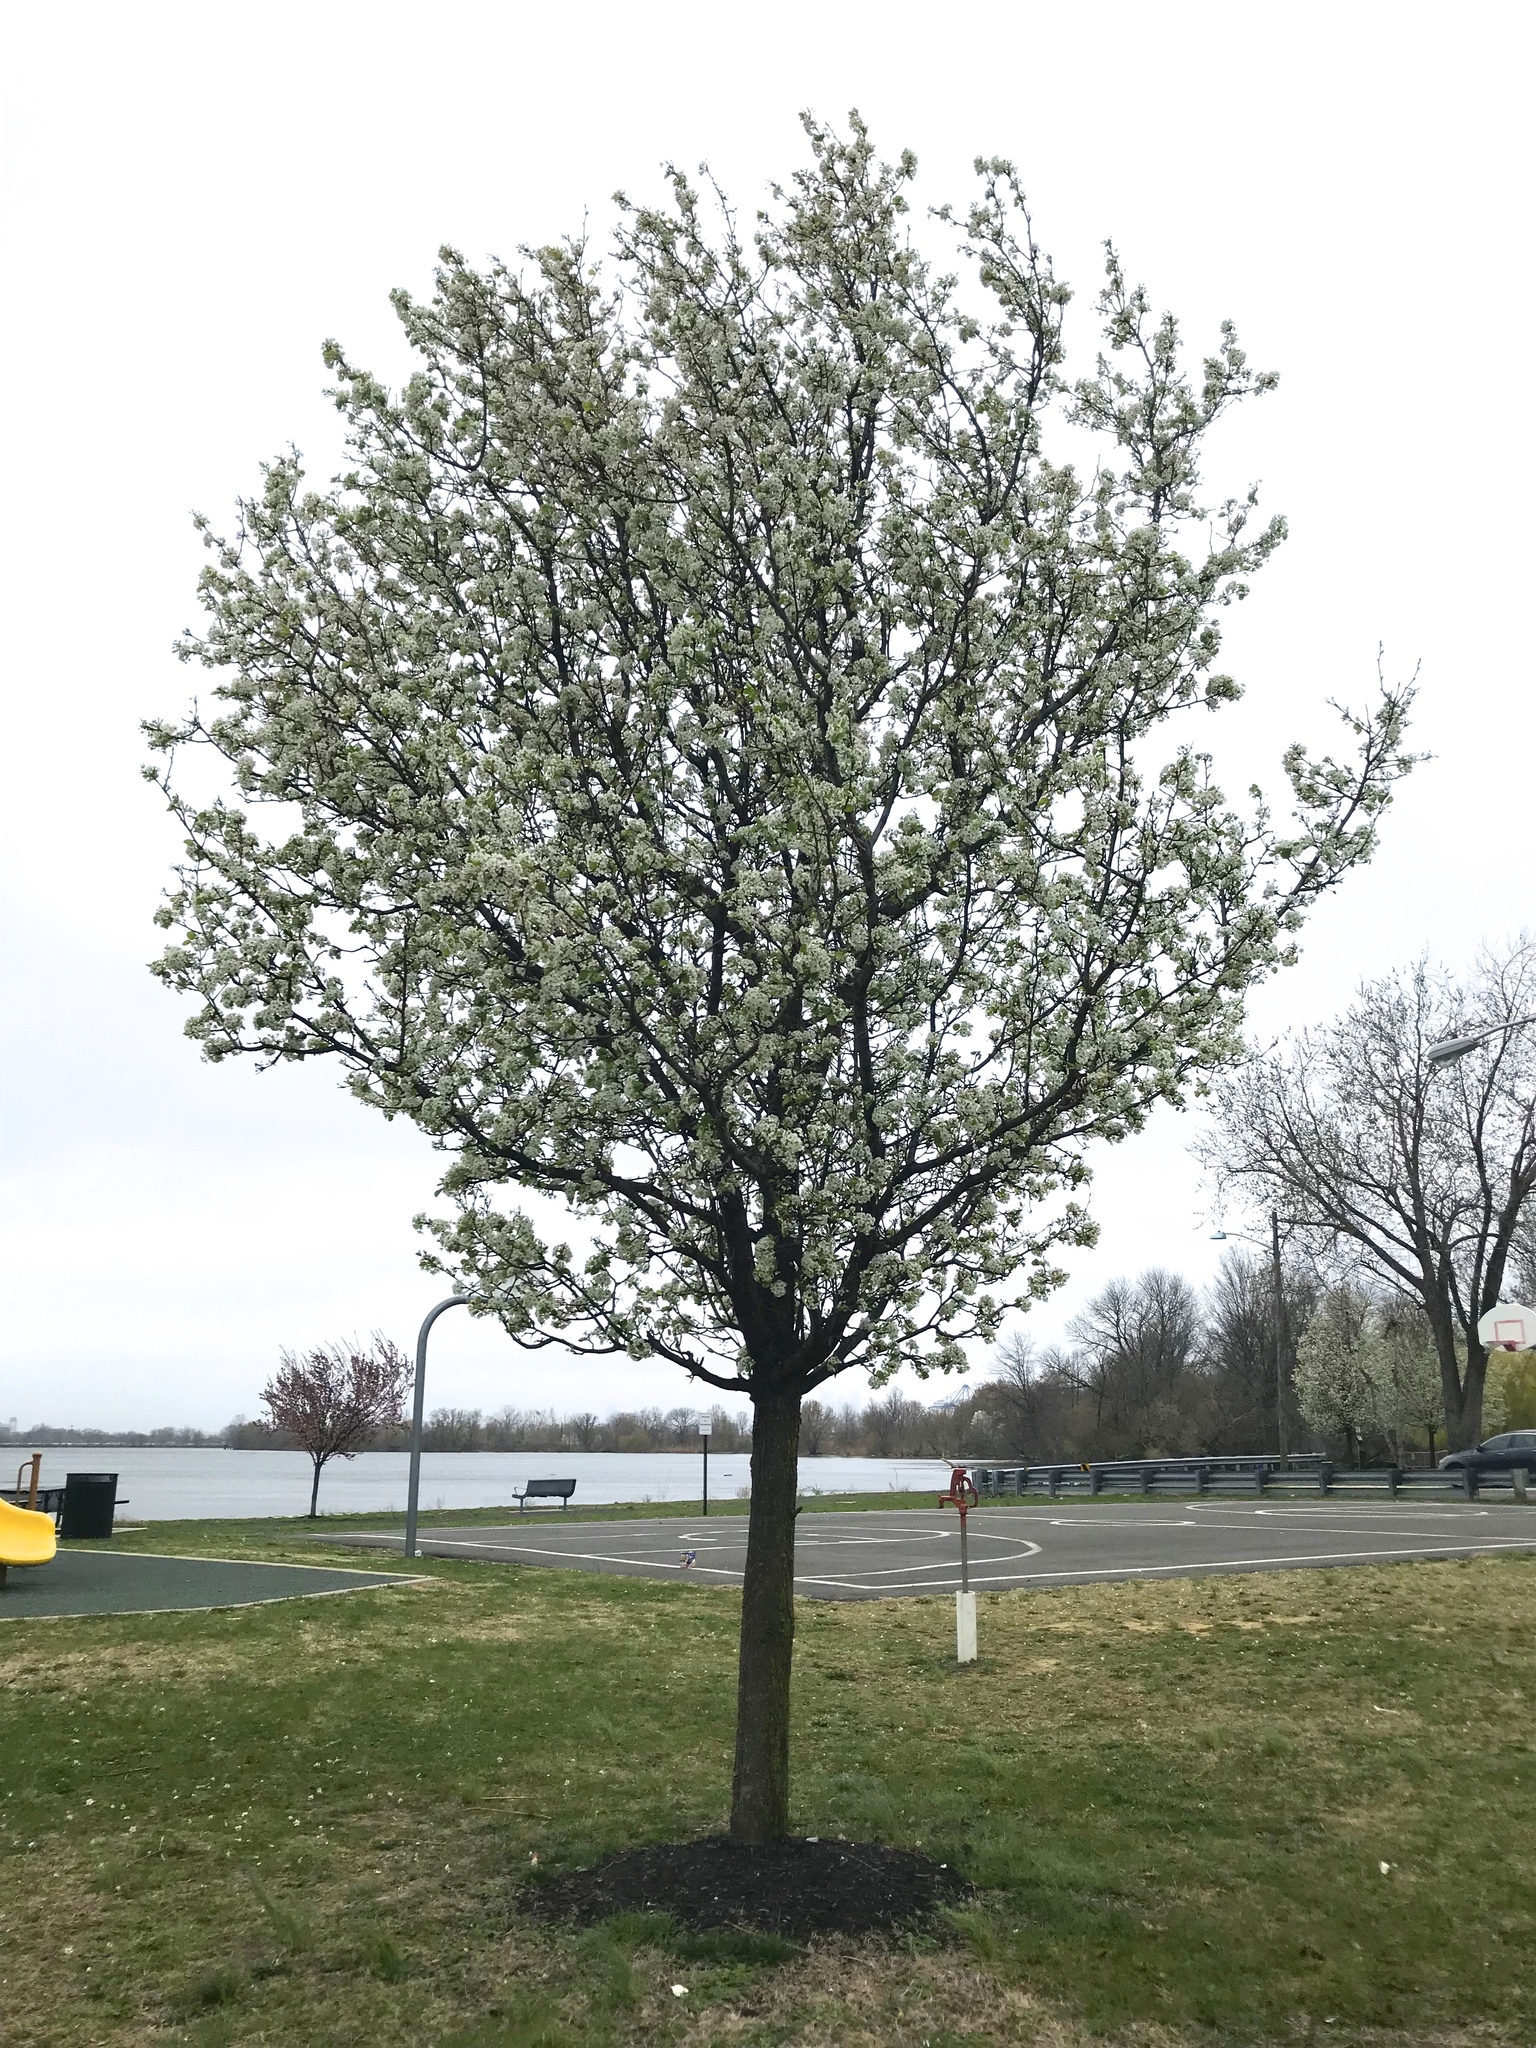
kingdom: Plantae
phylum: Tracheophyta
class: Magnoliopsida
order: Rosales
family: Rosaceae
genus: Pyrus
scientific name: Pyrus calleryana
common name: Callery pear
